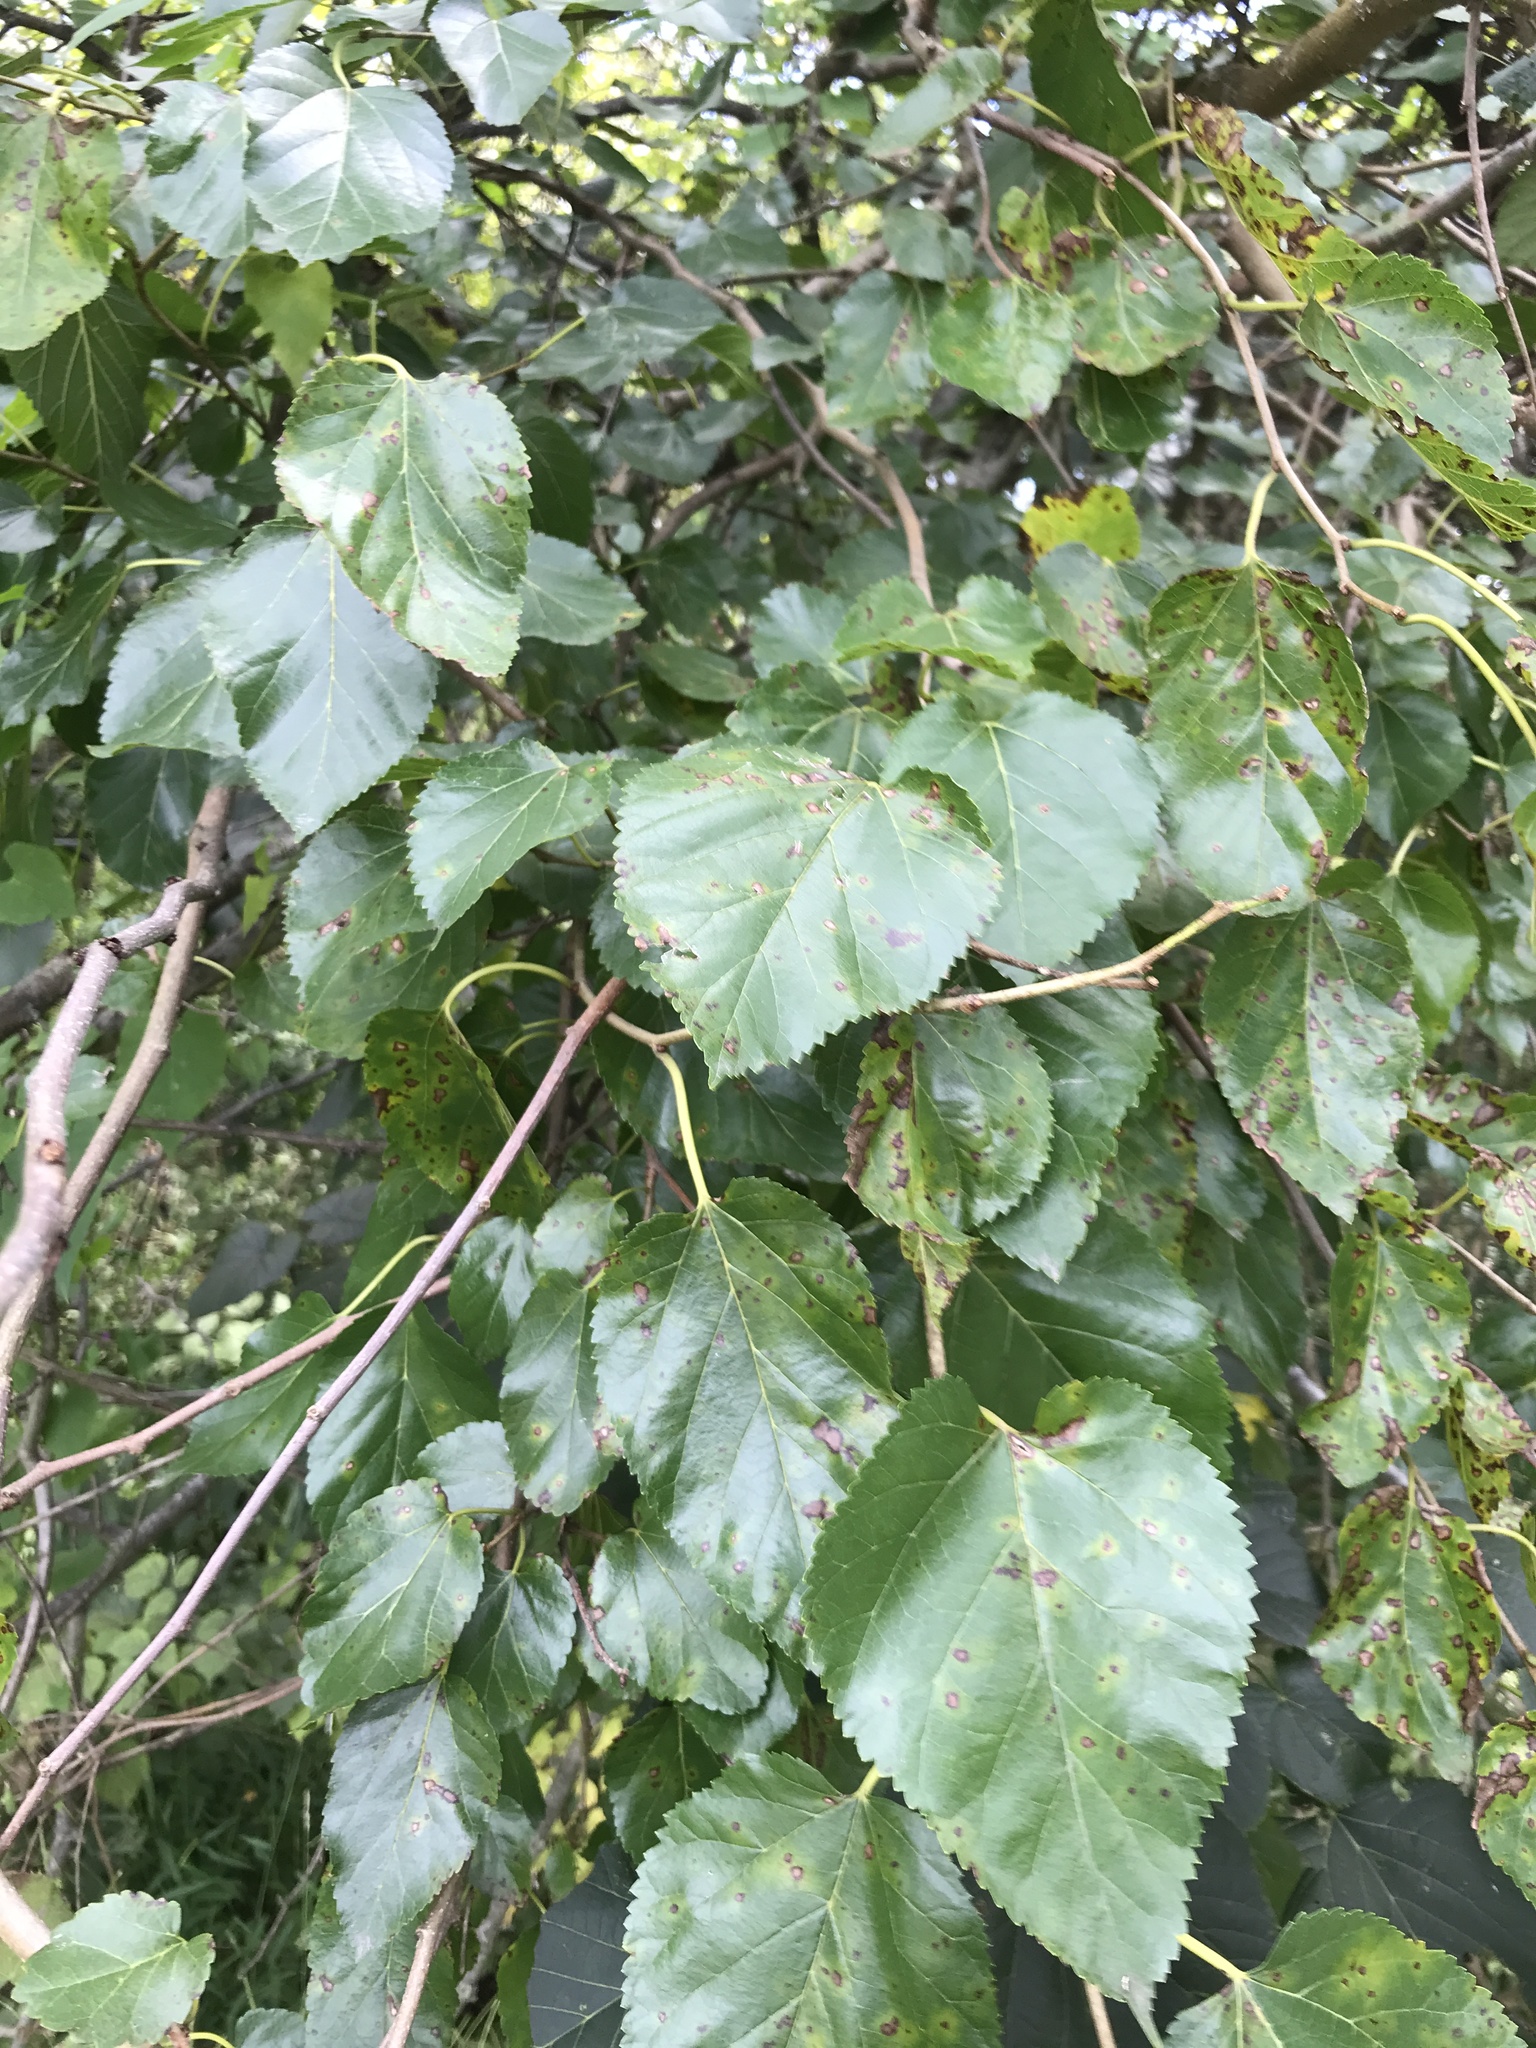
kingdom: Plantae
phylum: Tracheophyta
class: Magnoliopsida
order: Rosales
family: Moraceae
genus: Morus
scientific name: Morus alba
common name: White mulberry
